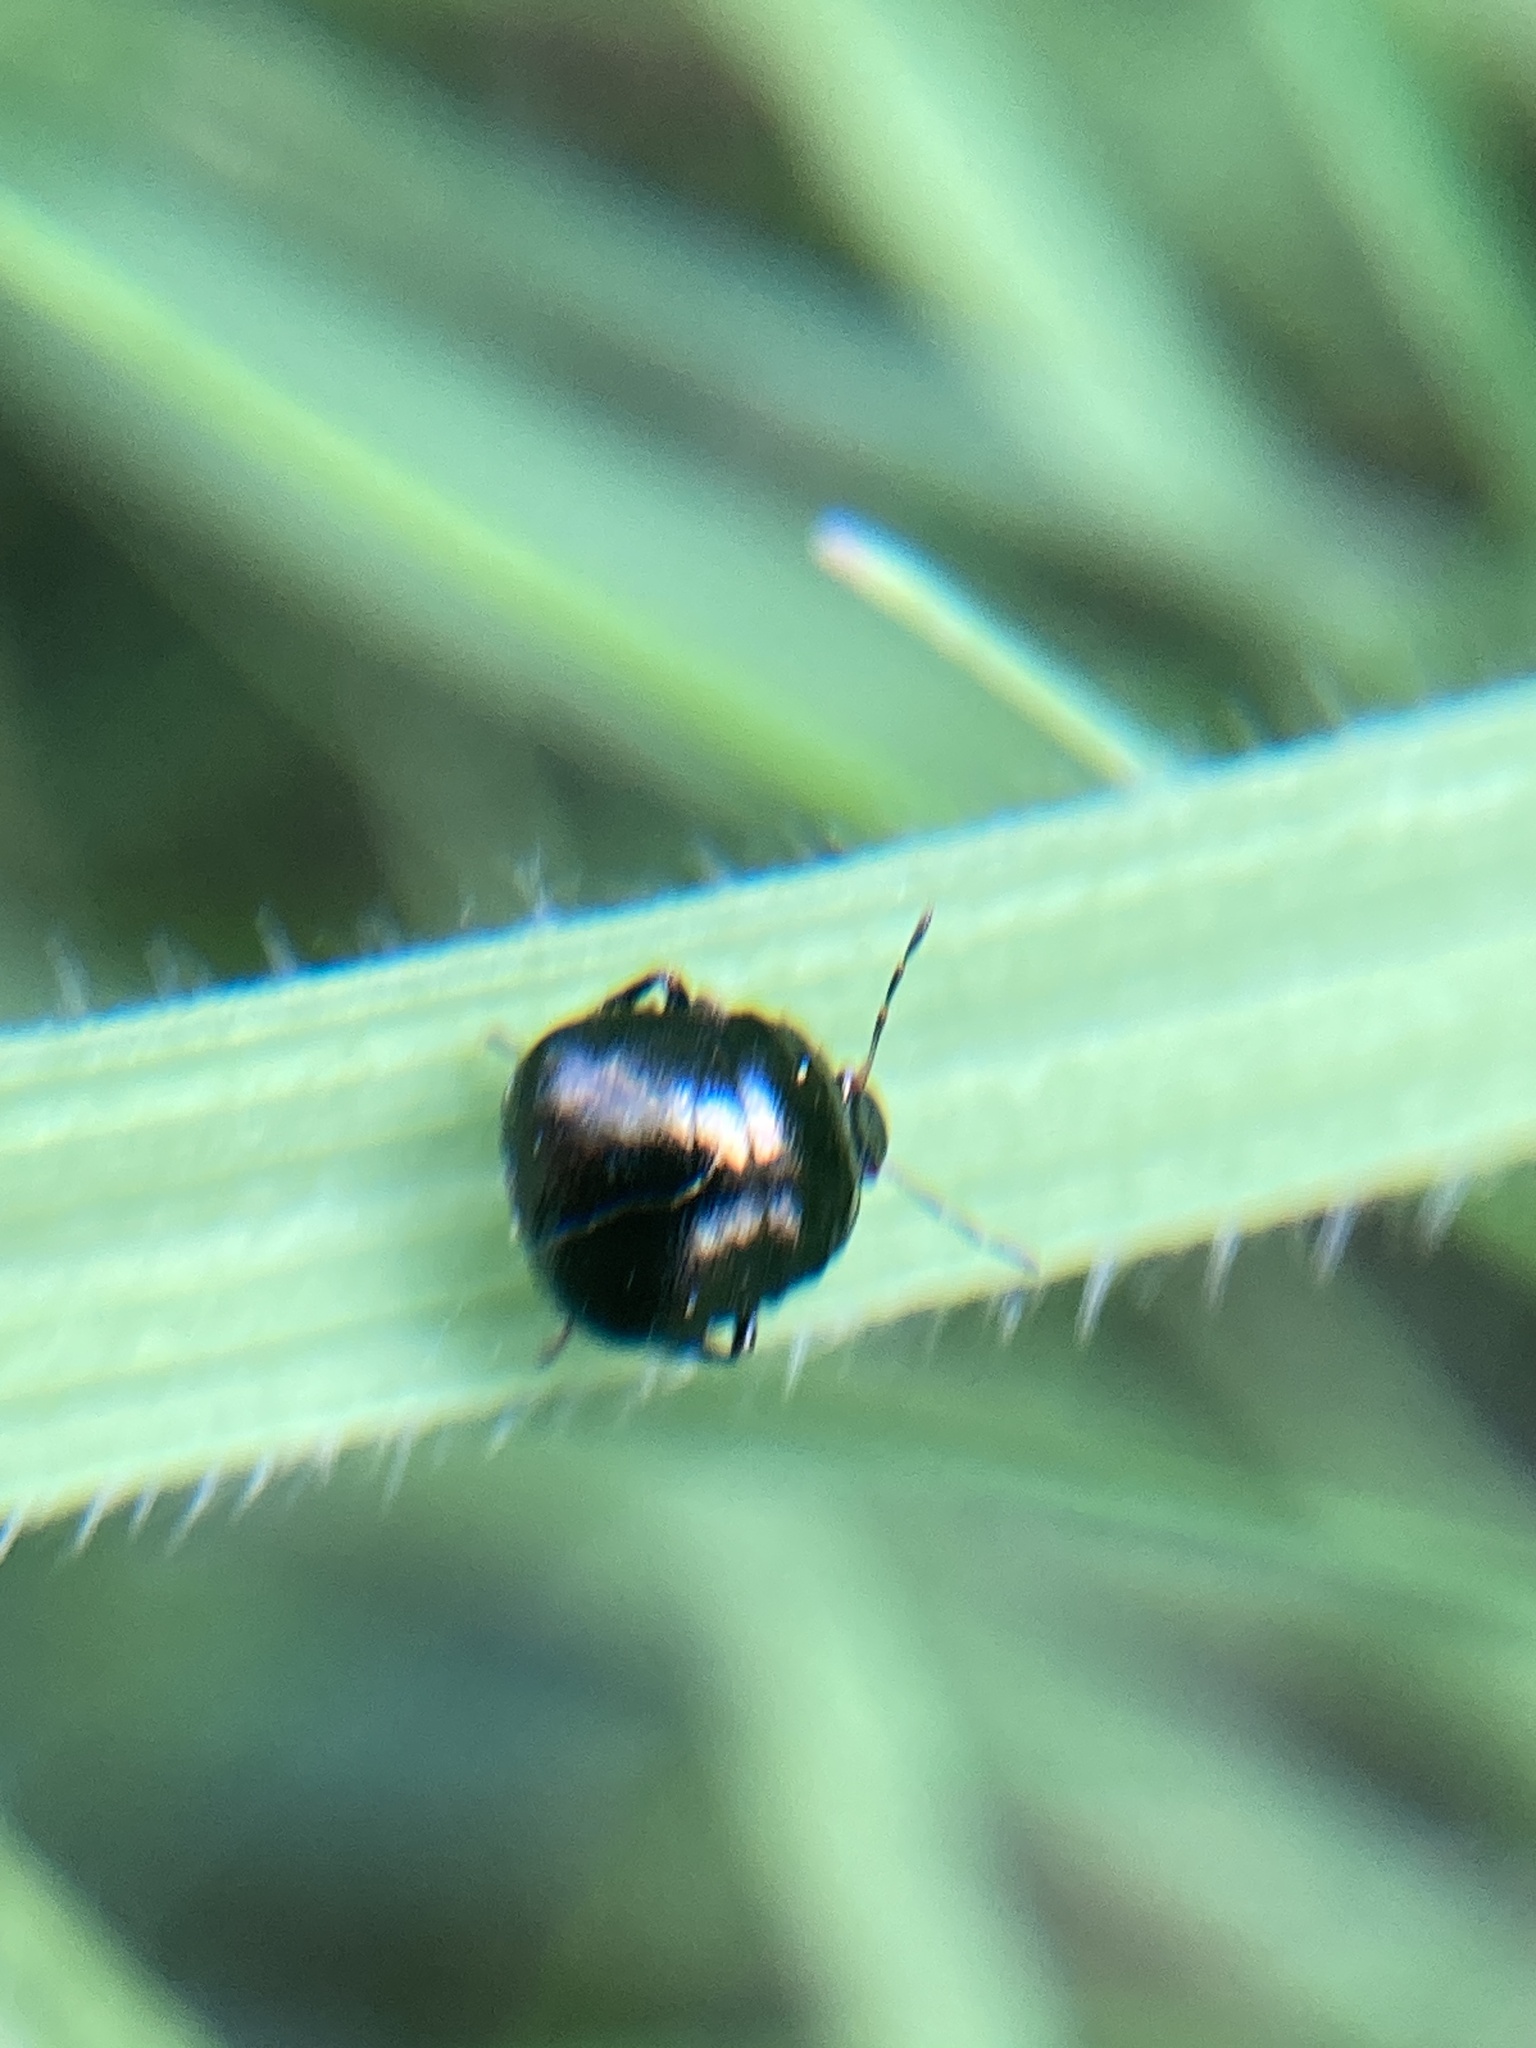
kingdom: Animalia
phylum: Arthropoda
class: Insecta
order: Hemiptera
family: Plataspidae
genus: Coptosoma
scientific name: Coptosoma scutellatum
